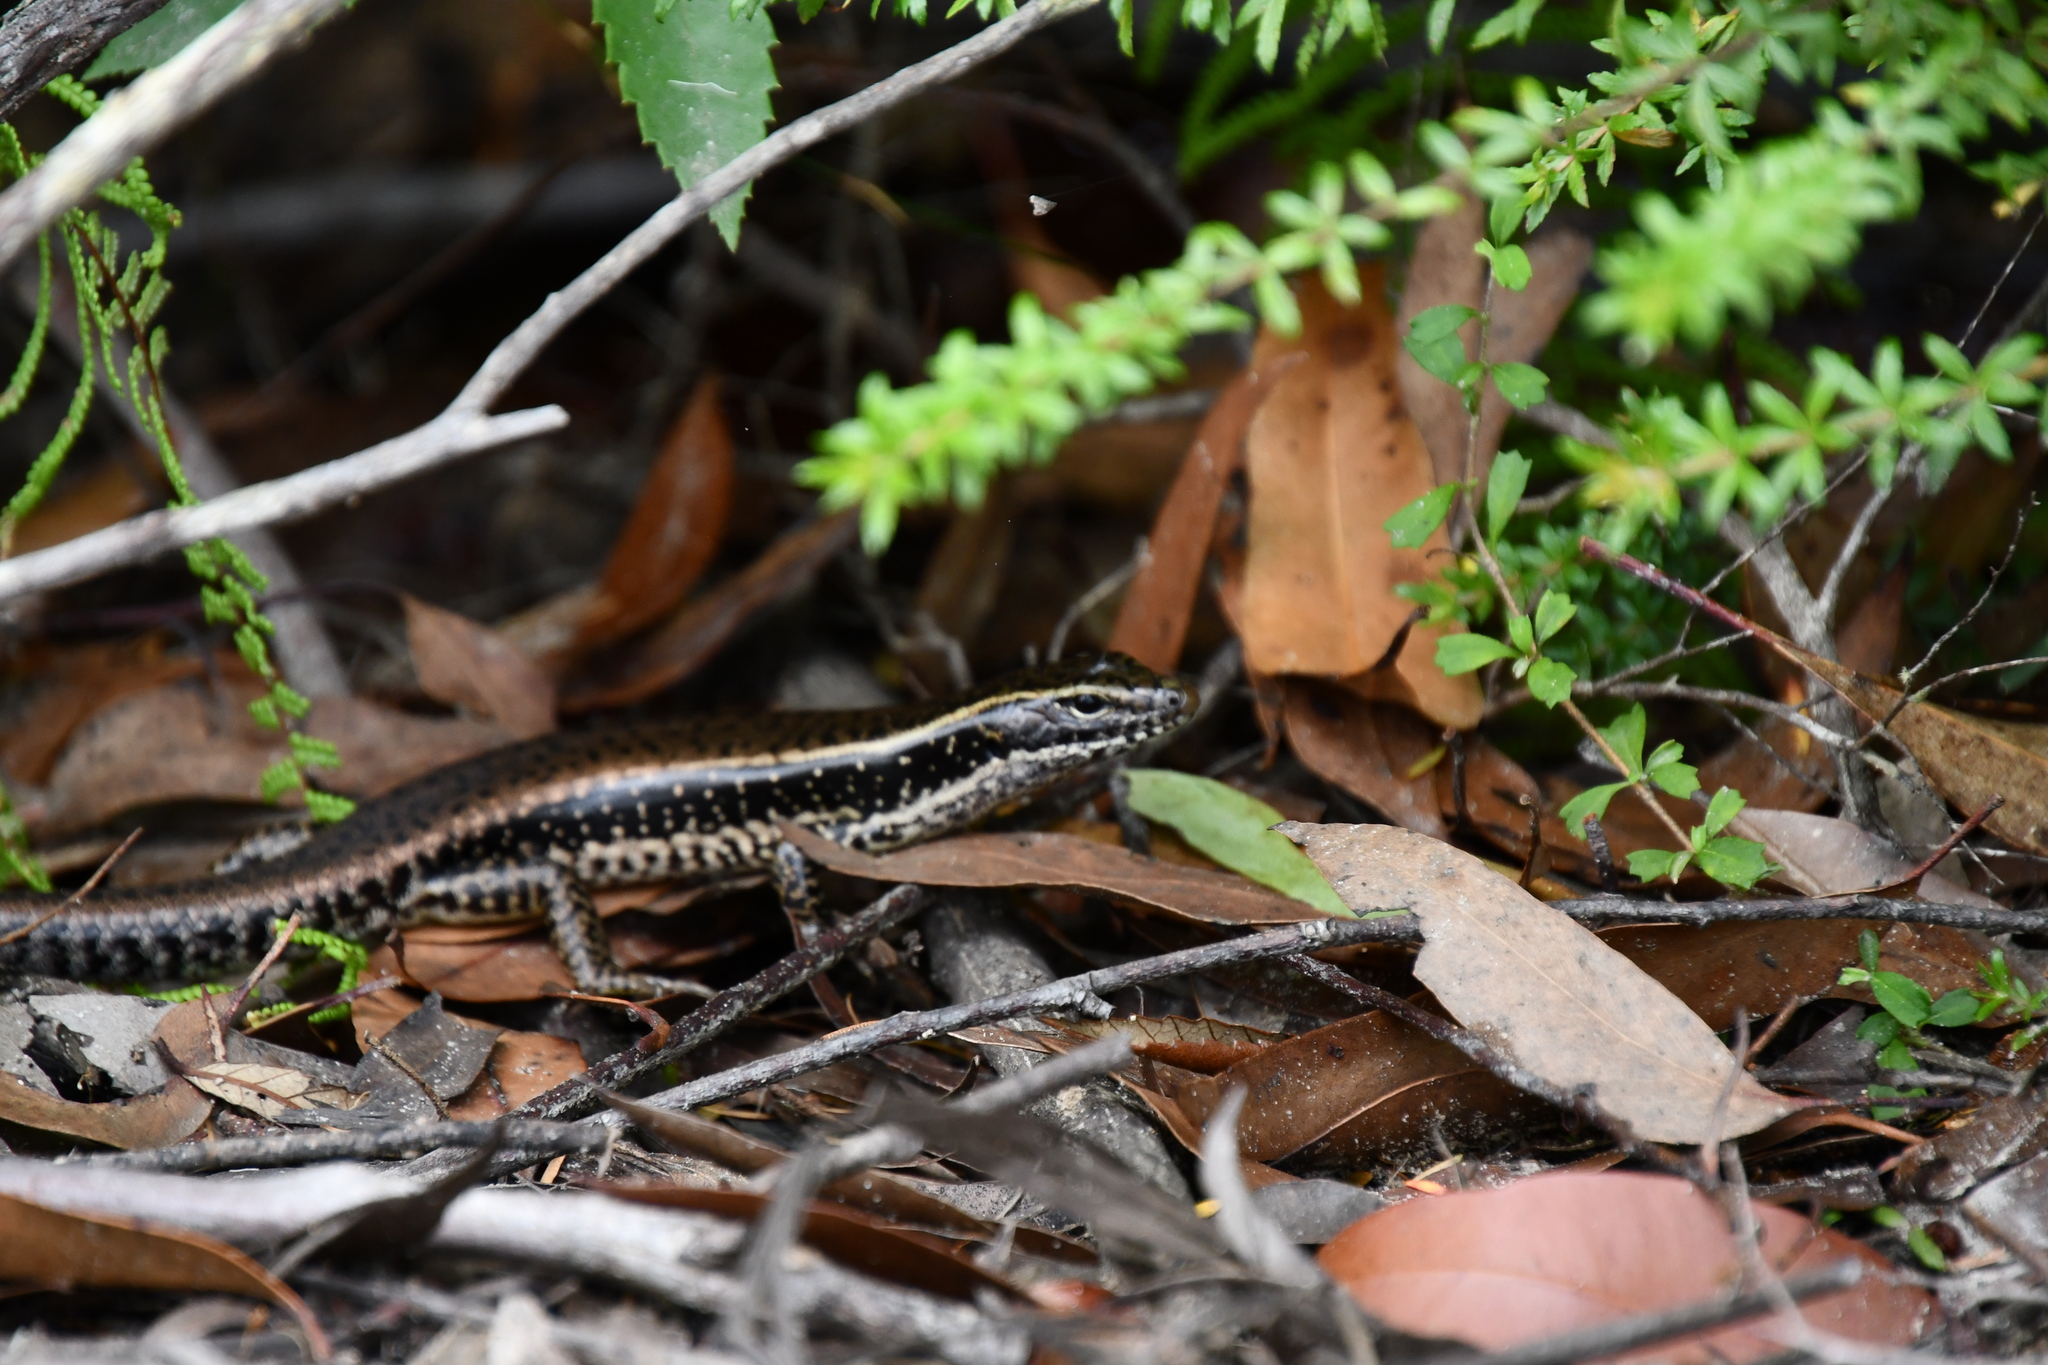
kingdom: Animalia
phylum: Chordata
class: Squamata
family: Scincidae
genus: Eulamprus
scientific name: Eulamprus quoyii
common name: Eastern water skink
